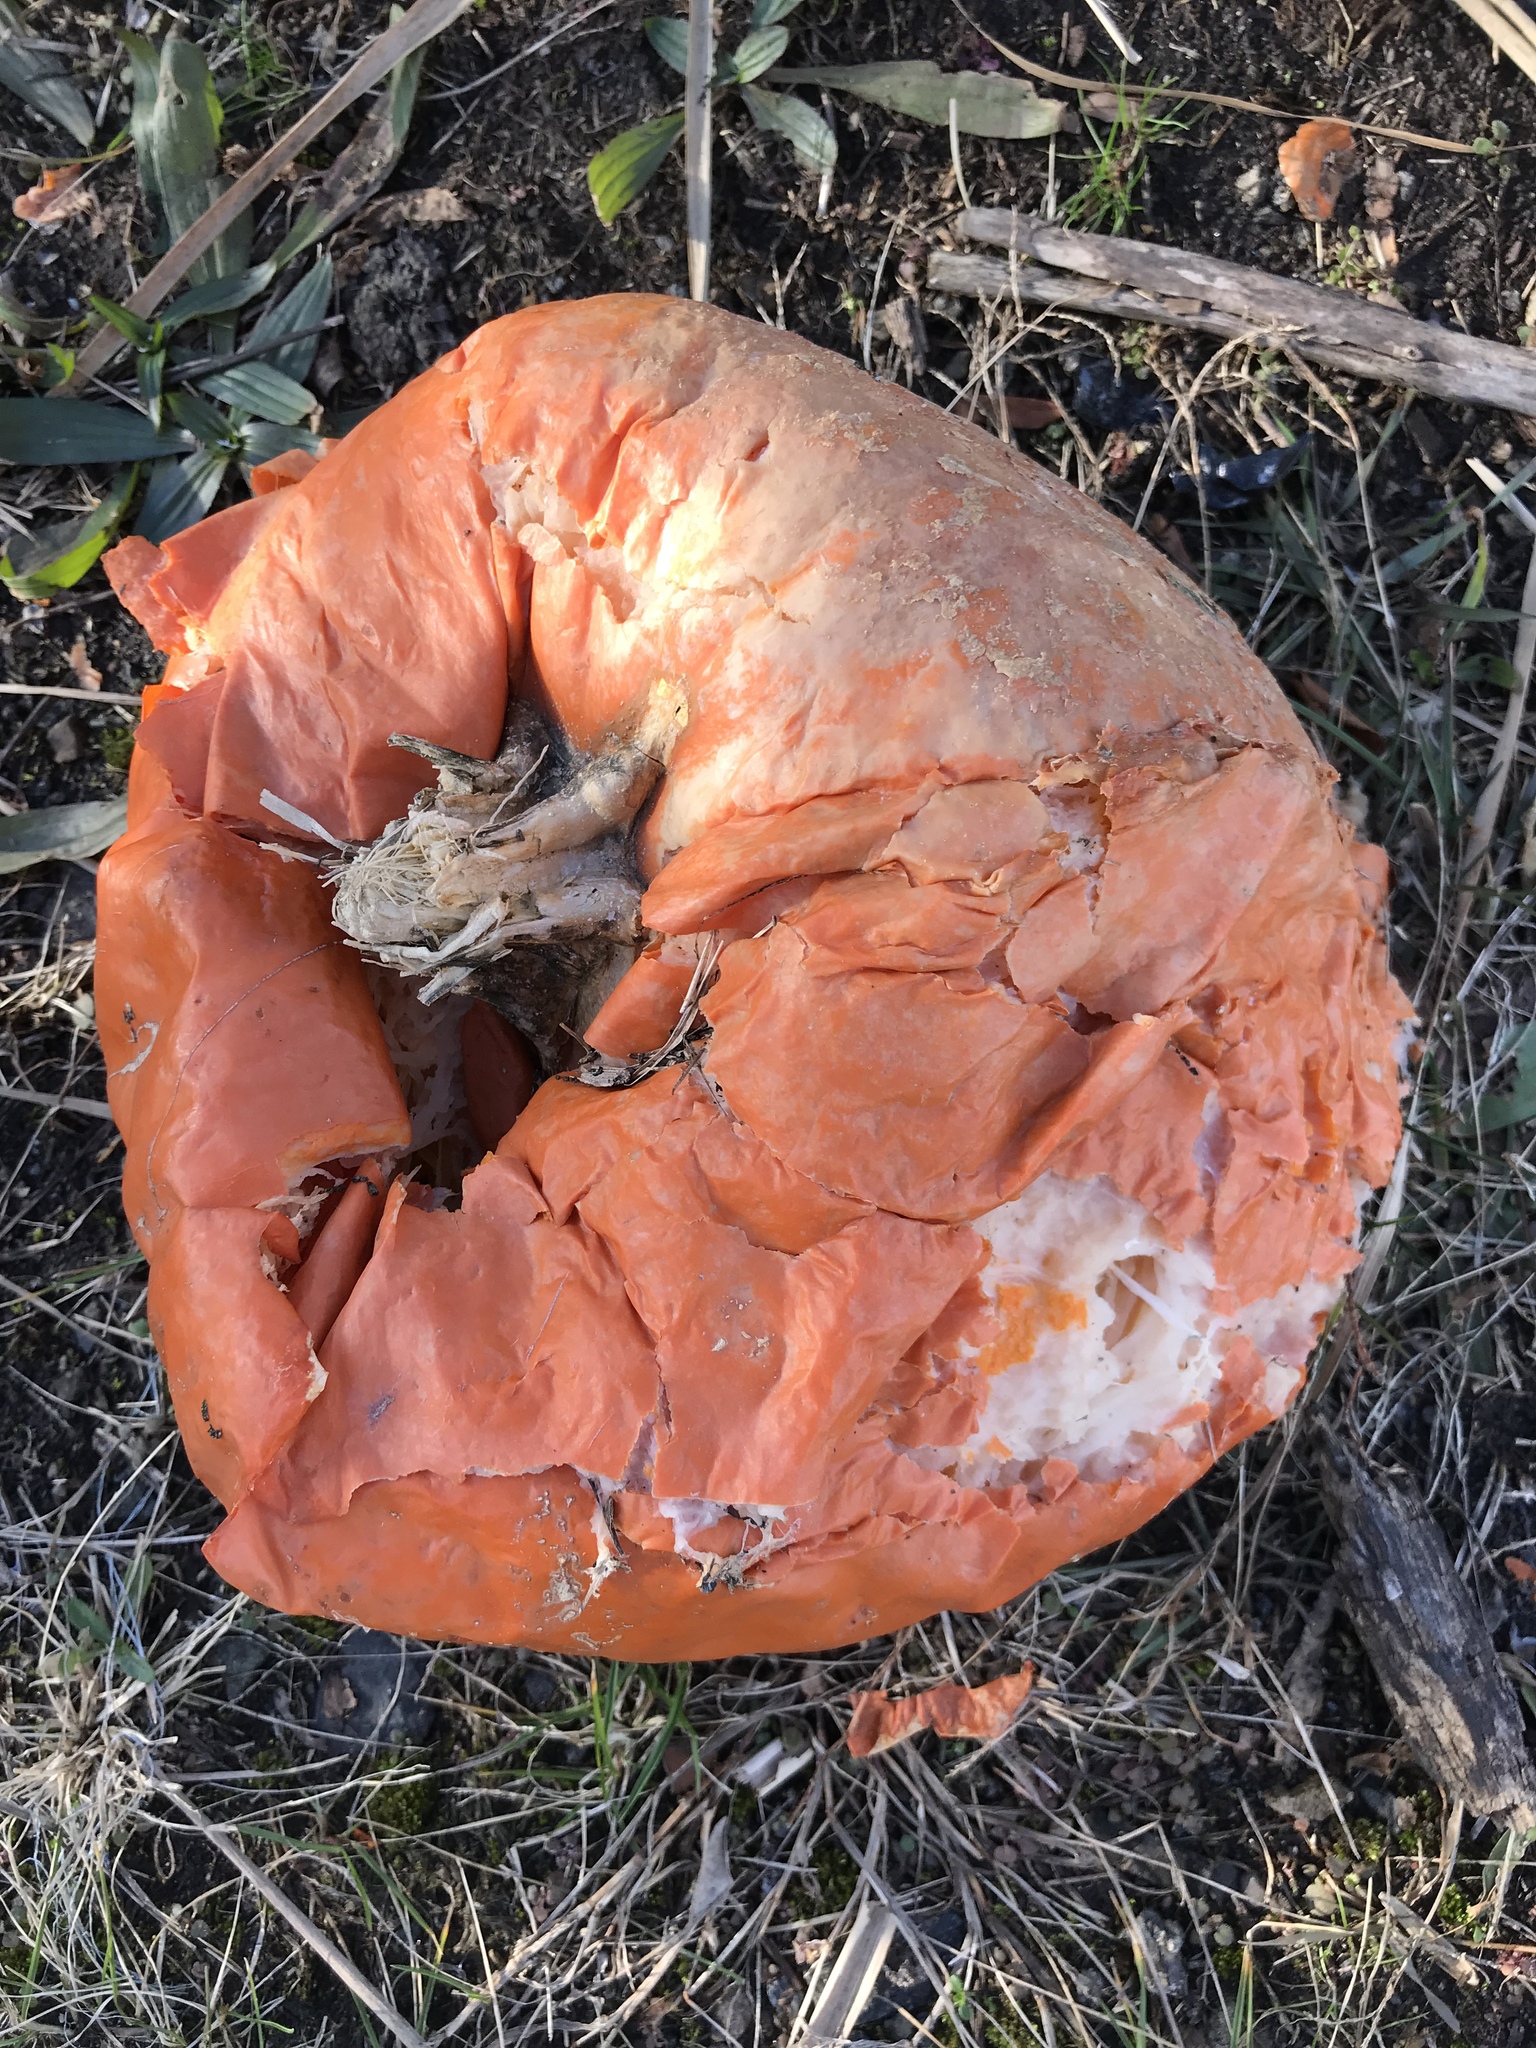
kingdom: Plantae
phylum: Tracheophyta
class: Magnoliopsida
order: Cucurbitales
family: Cucurbitaceae
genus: Cucurbita
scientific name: Cucurbita pepo
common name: Marrow
